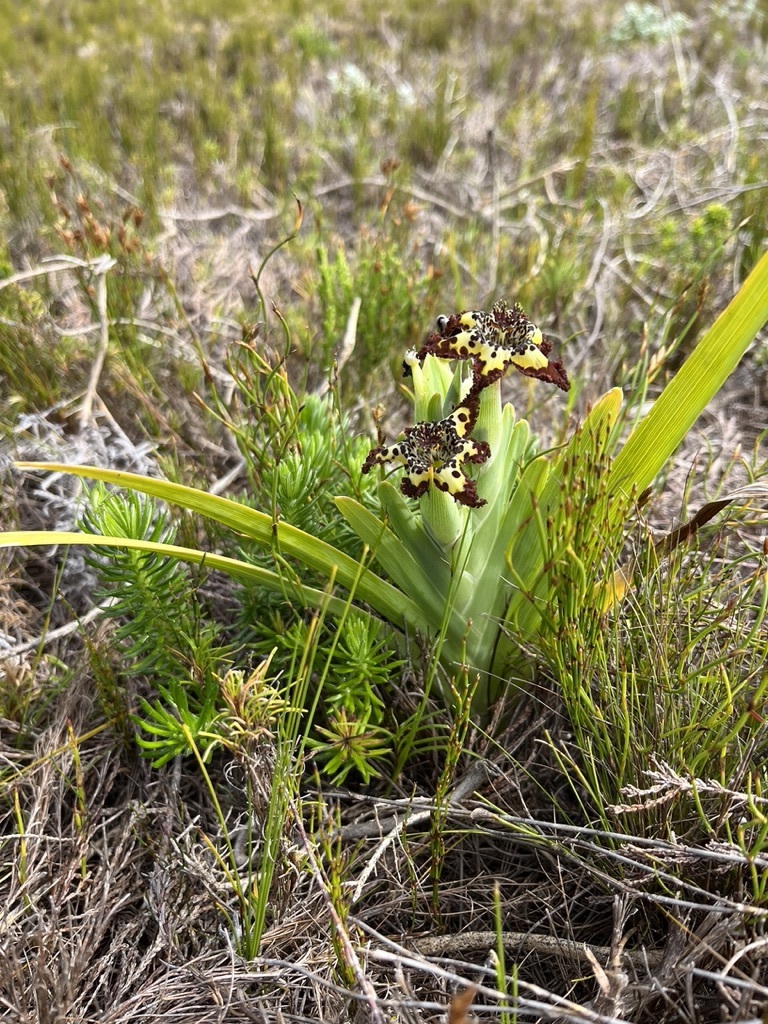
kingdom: Plantae
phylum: Tracheophyta
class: Liliopsida
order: Asparagales
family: Iridaceae
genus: Ferraria
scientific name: Ferraria crispa
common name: Black-flag
